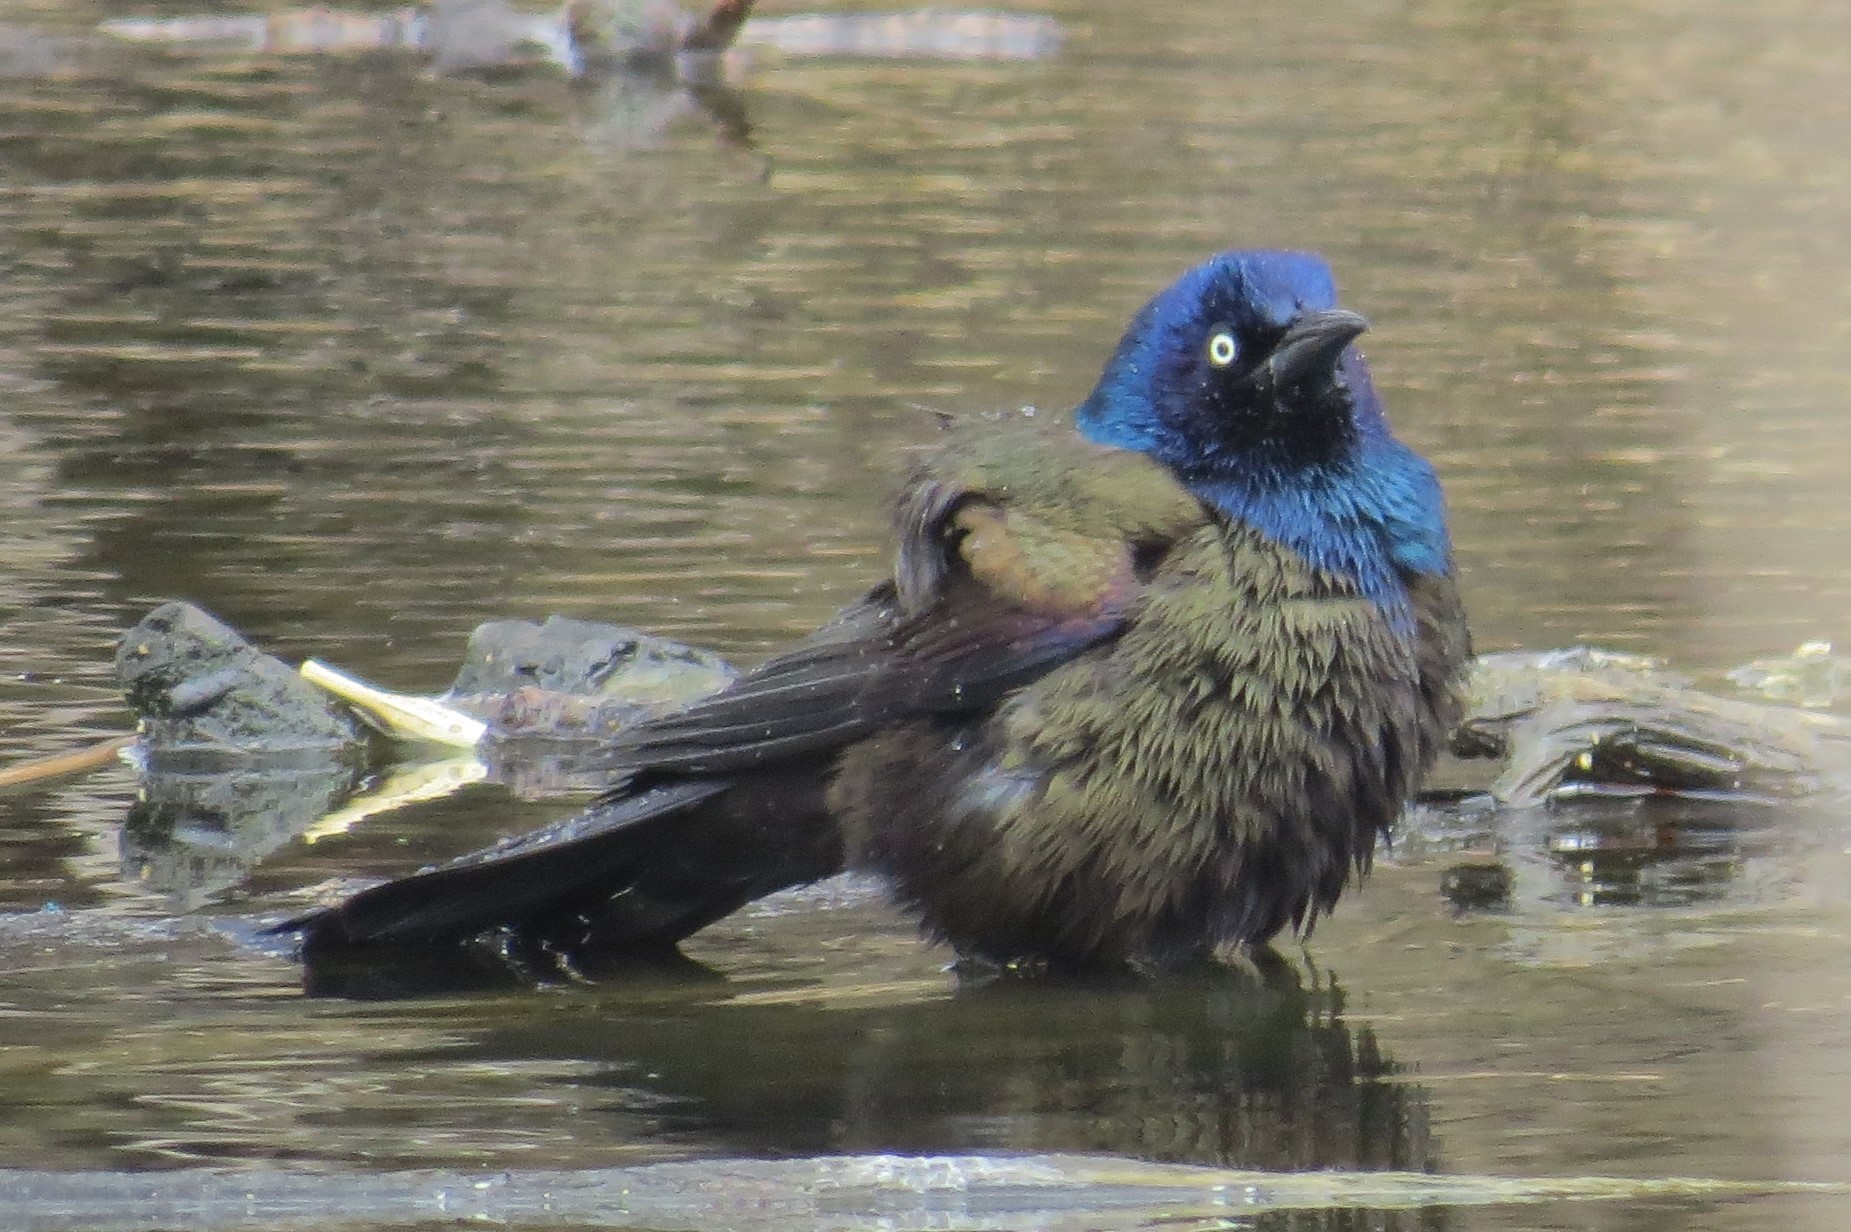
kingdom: Animalia
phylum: Chordata
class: Aves
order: Passeriformes
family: Icteridae
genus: Quiscalus
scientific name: Quiscalus quiscula
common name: Common grackle
